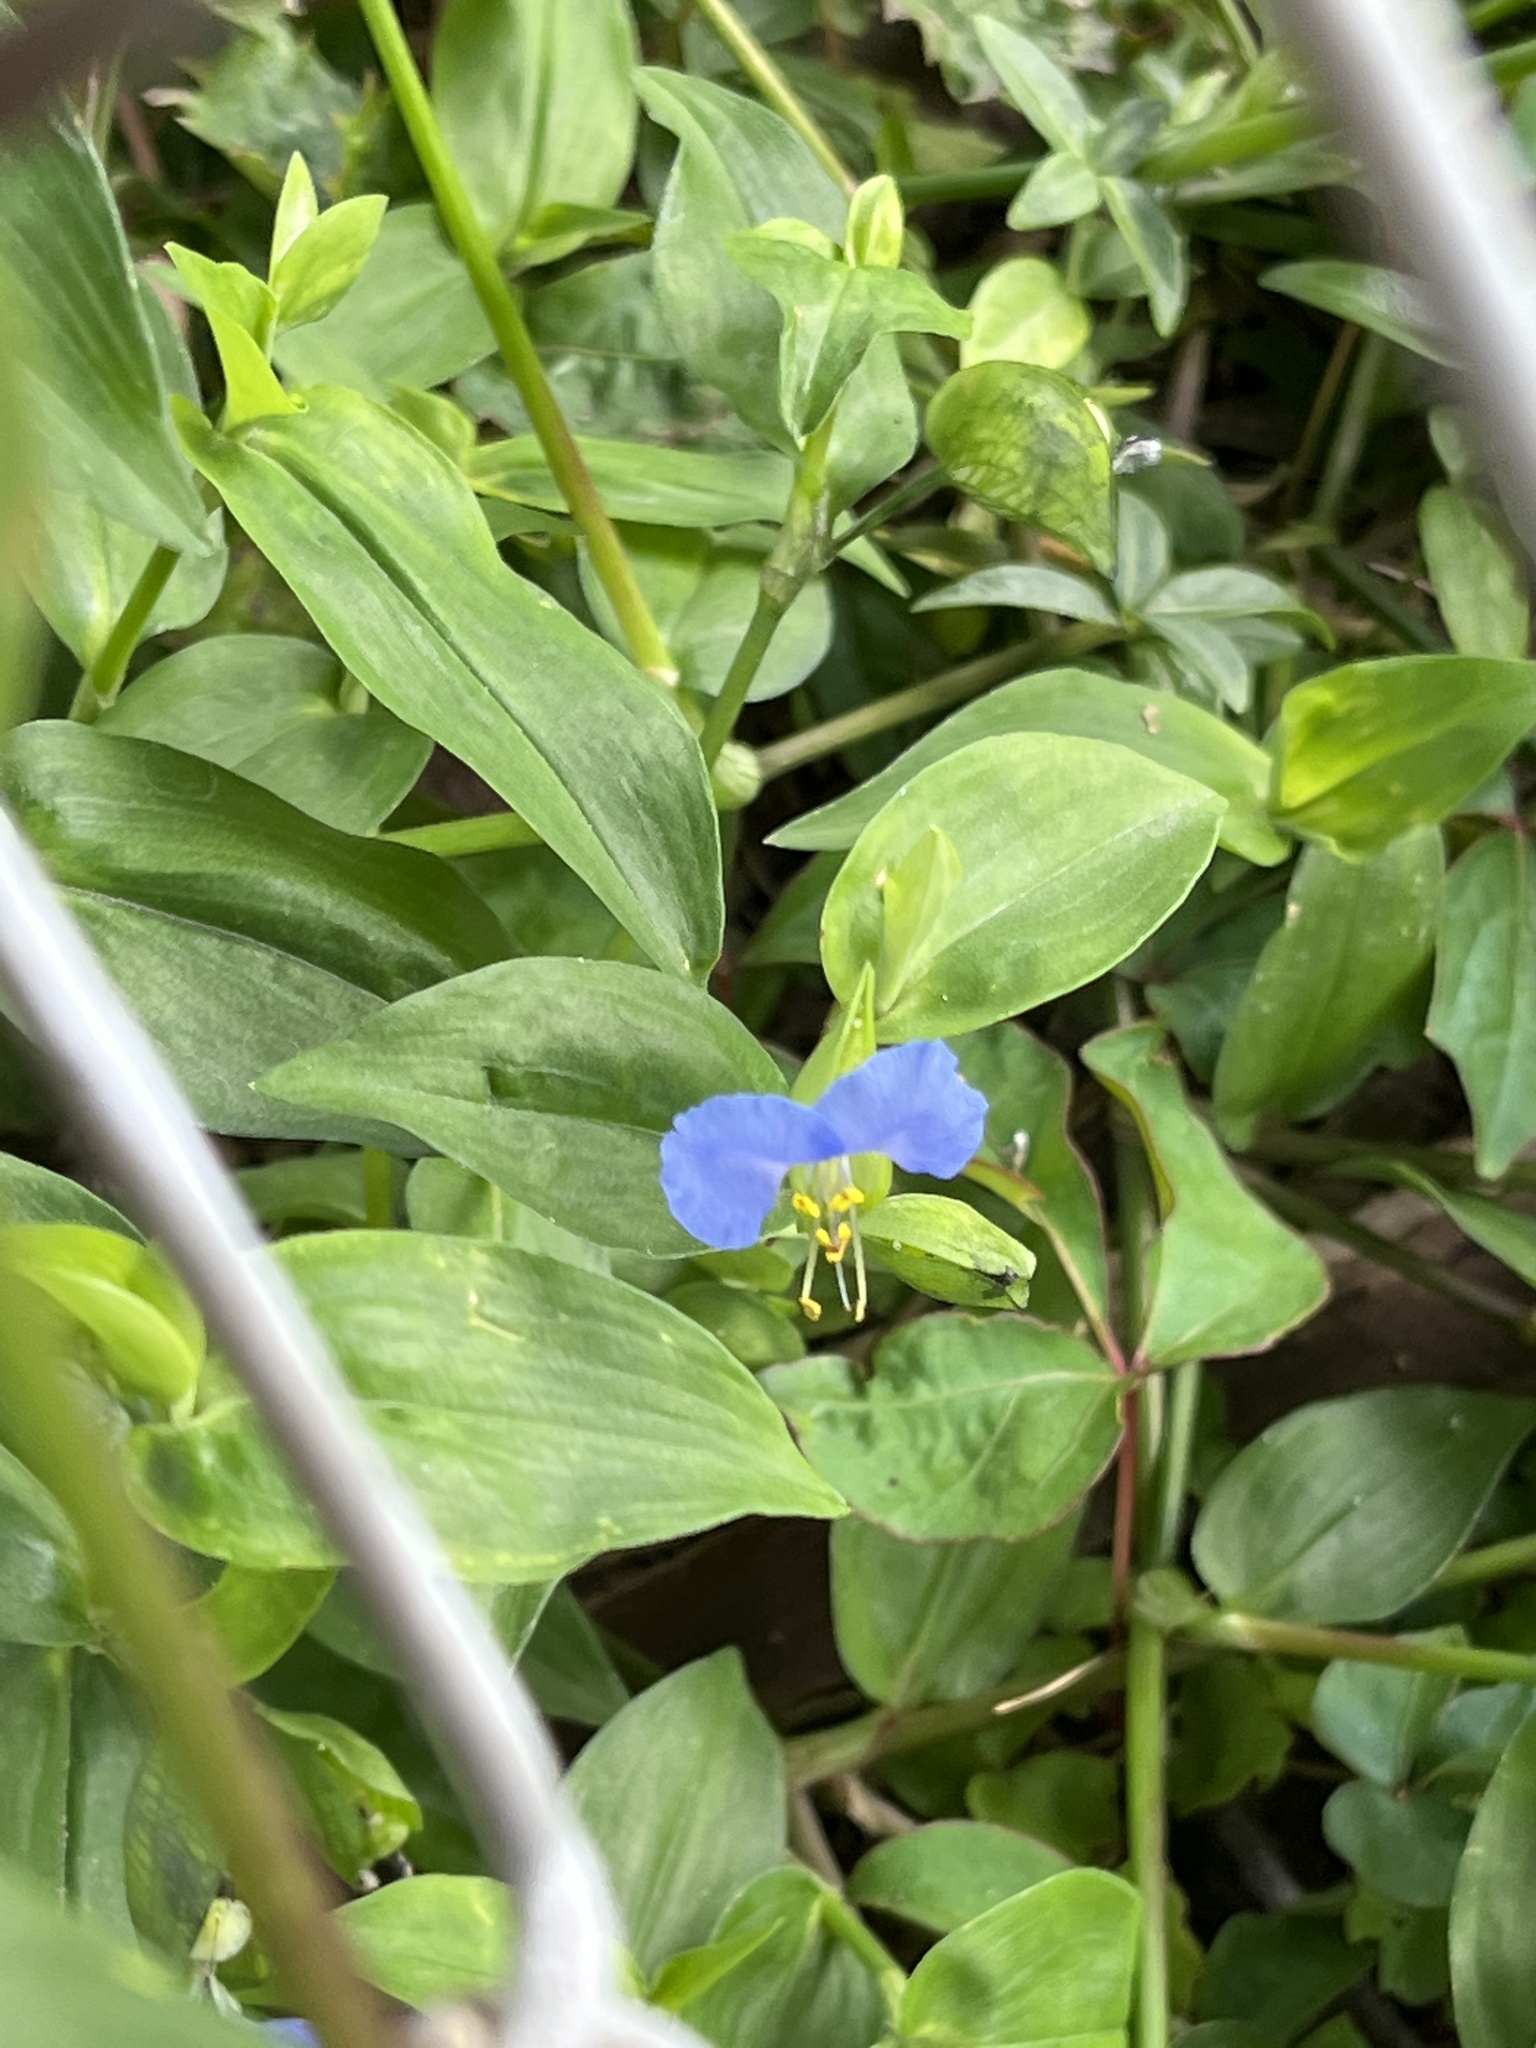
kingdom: Plantae
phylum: Tracheophyta
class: Liliopsida
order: Commelinales
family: Commelinaceae
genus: Commelina
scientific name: Commelina communis
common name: Asiatic dayflower
